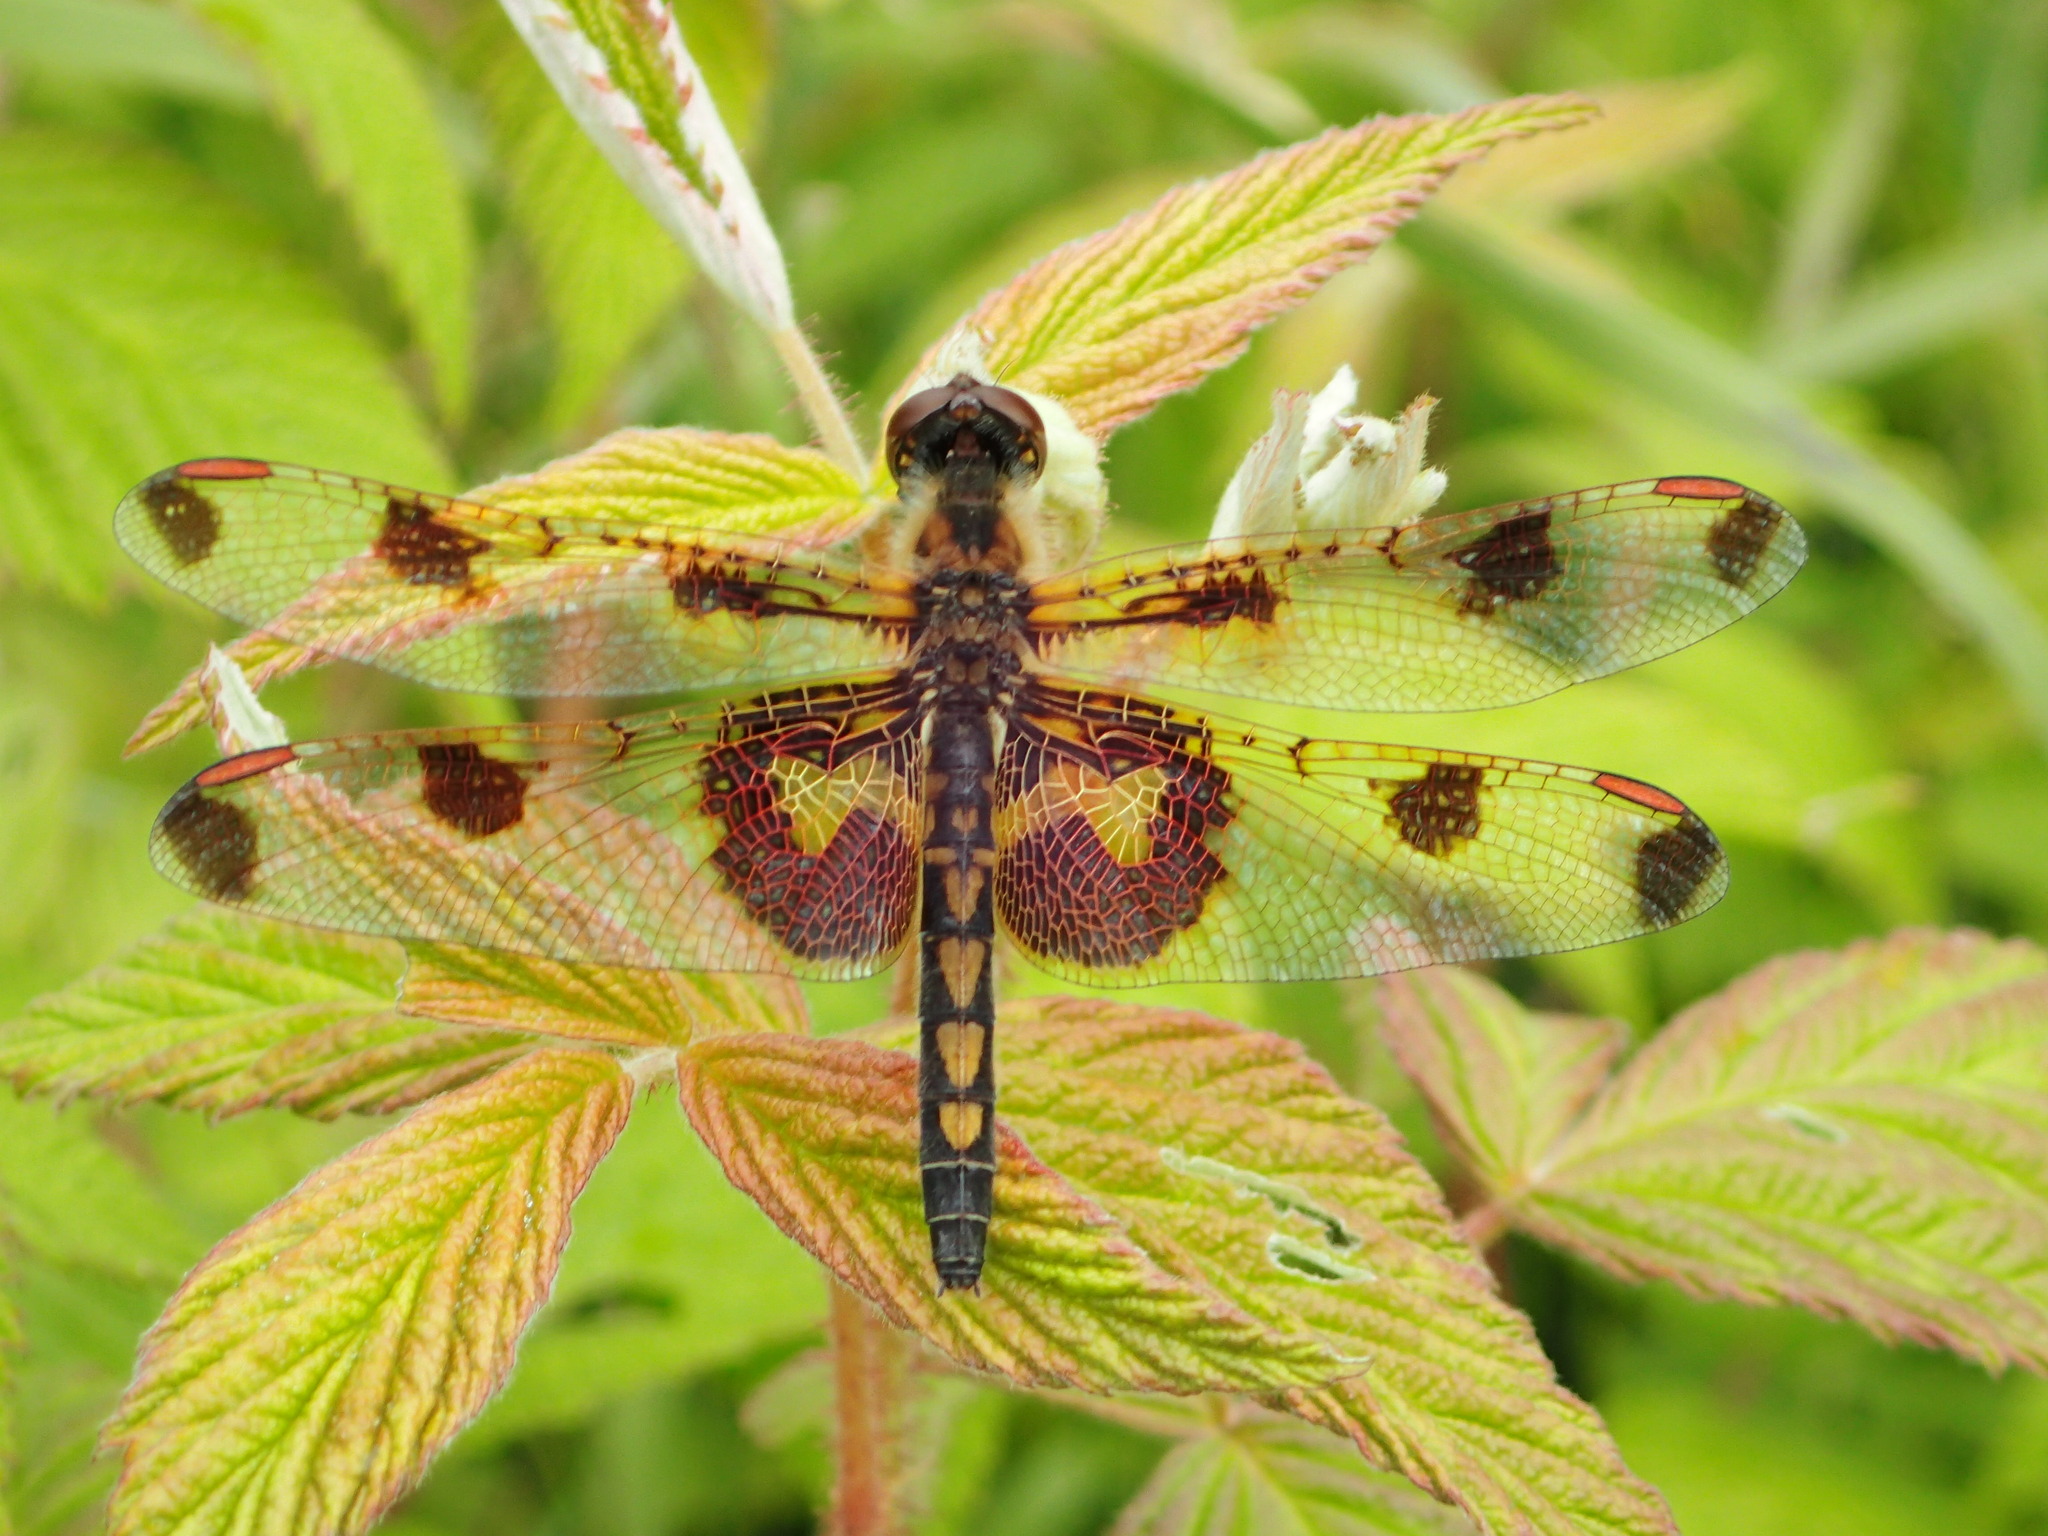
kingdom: Animalia
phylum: Arthropoda
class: Insecta
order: Odonata
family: Libellulidae
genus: Celithemis
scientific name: Celithemis elisa
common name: Calico pennant
